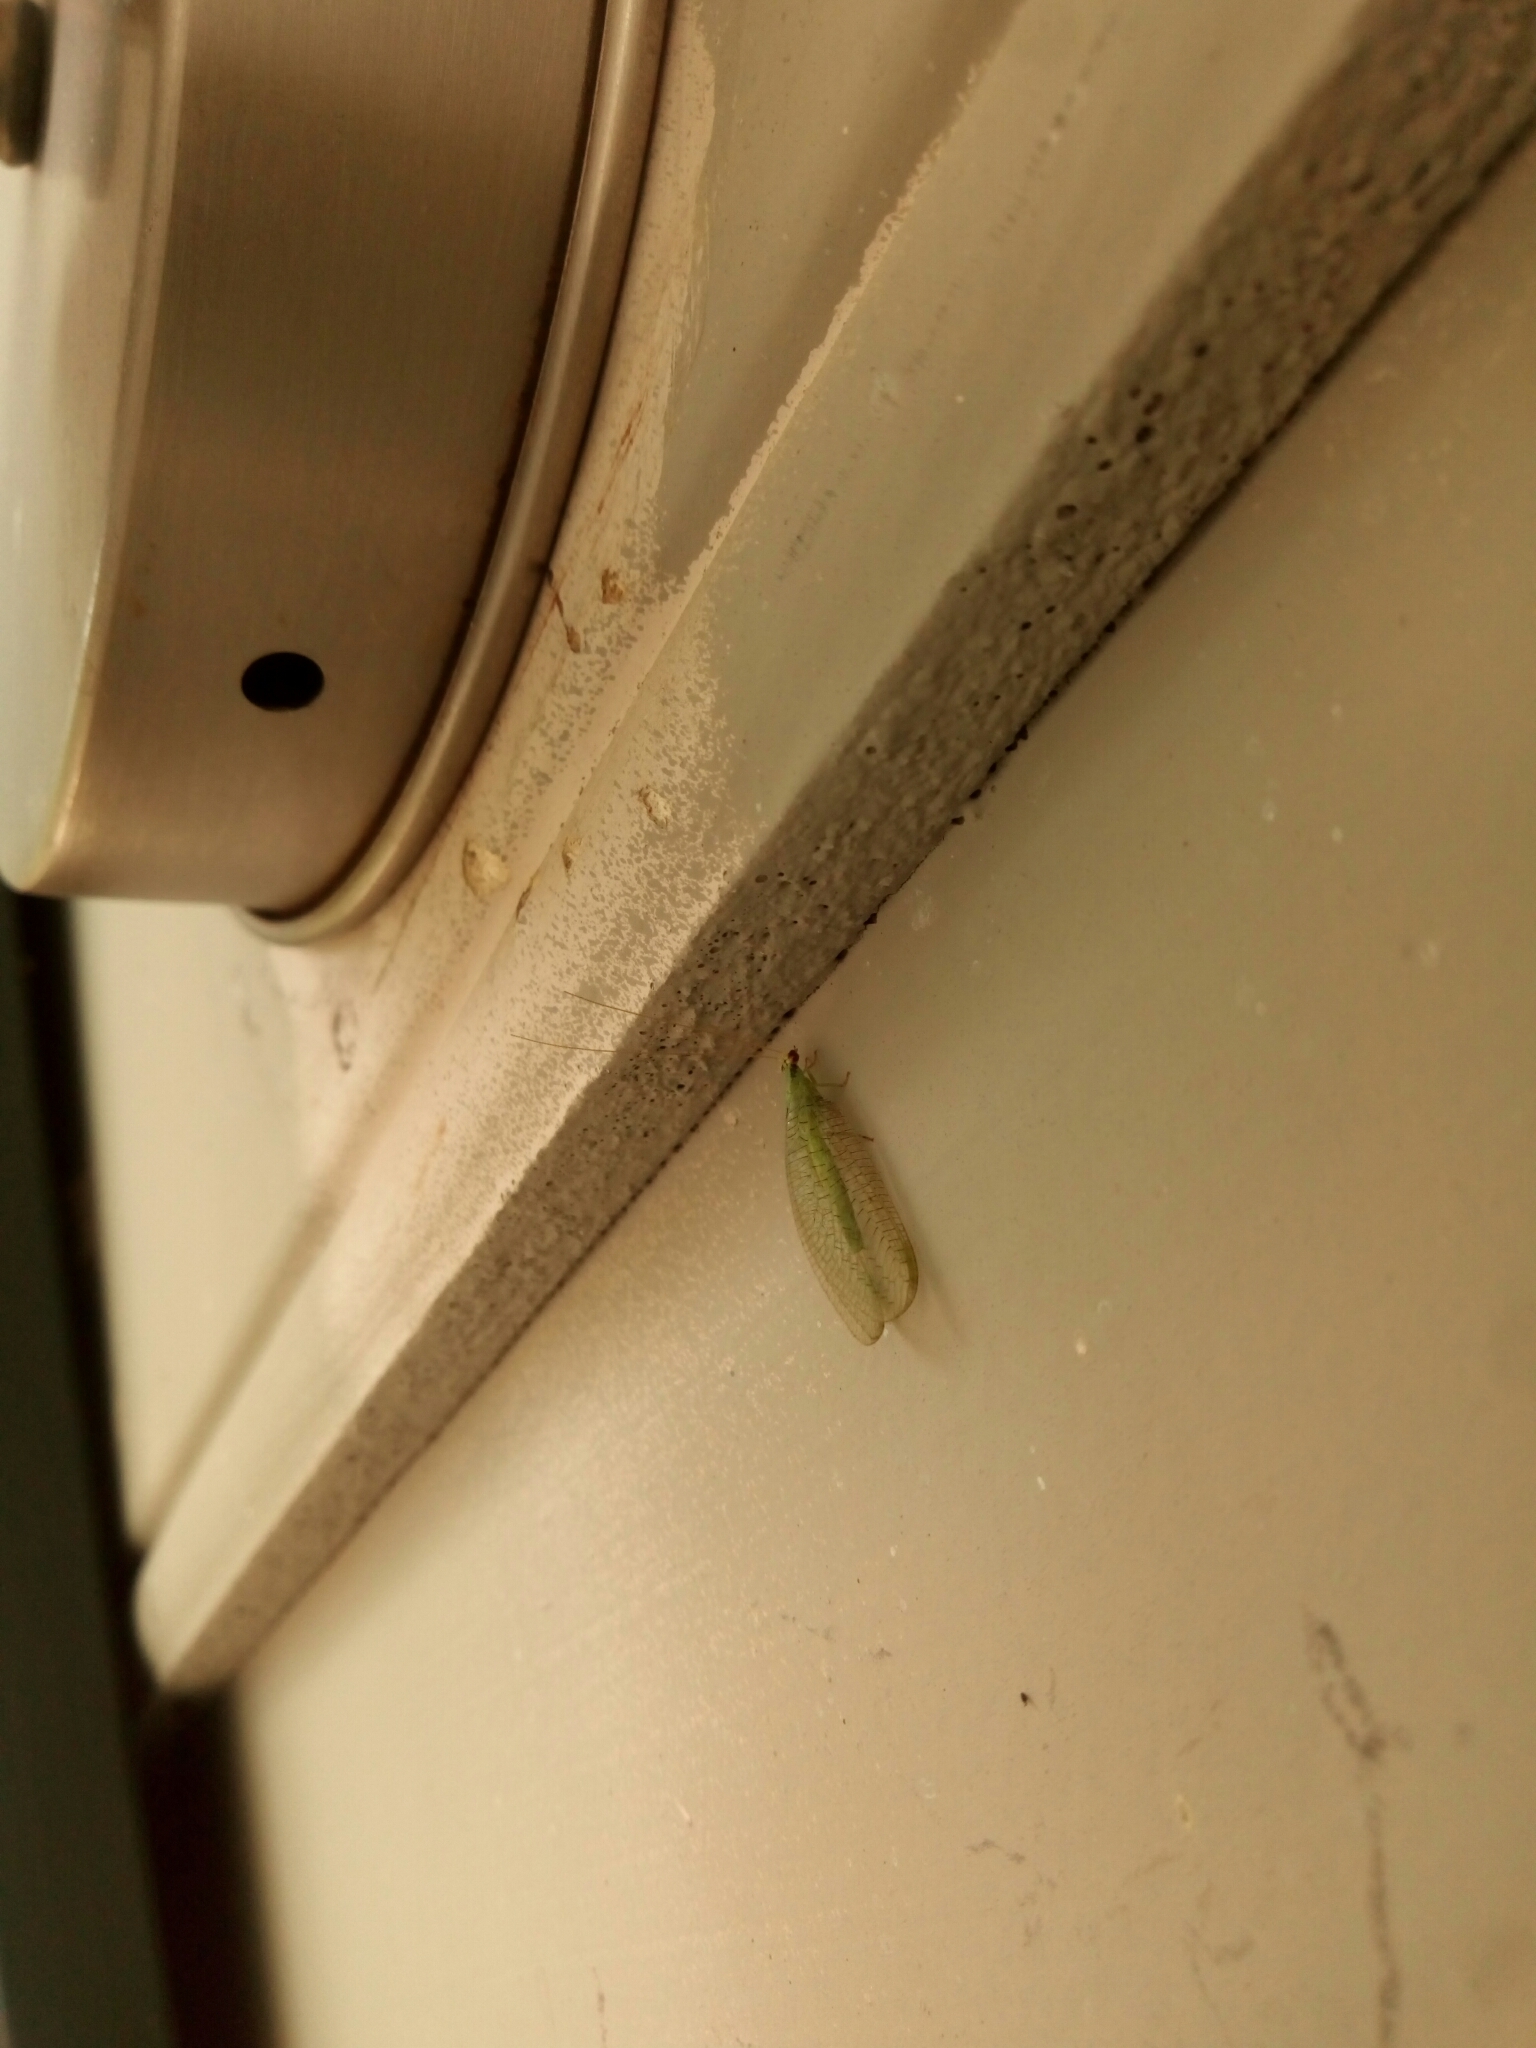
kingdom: Animalia
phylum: Arthropoda
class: Insecta
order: Neuroptera
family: Chrysopidae
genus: Chrysopa
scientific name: Chrysopa incompleta
